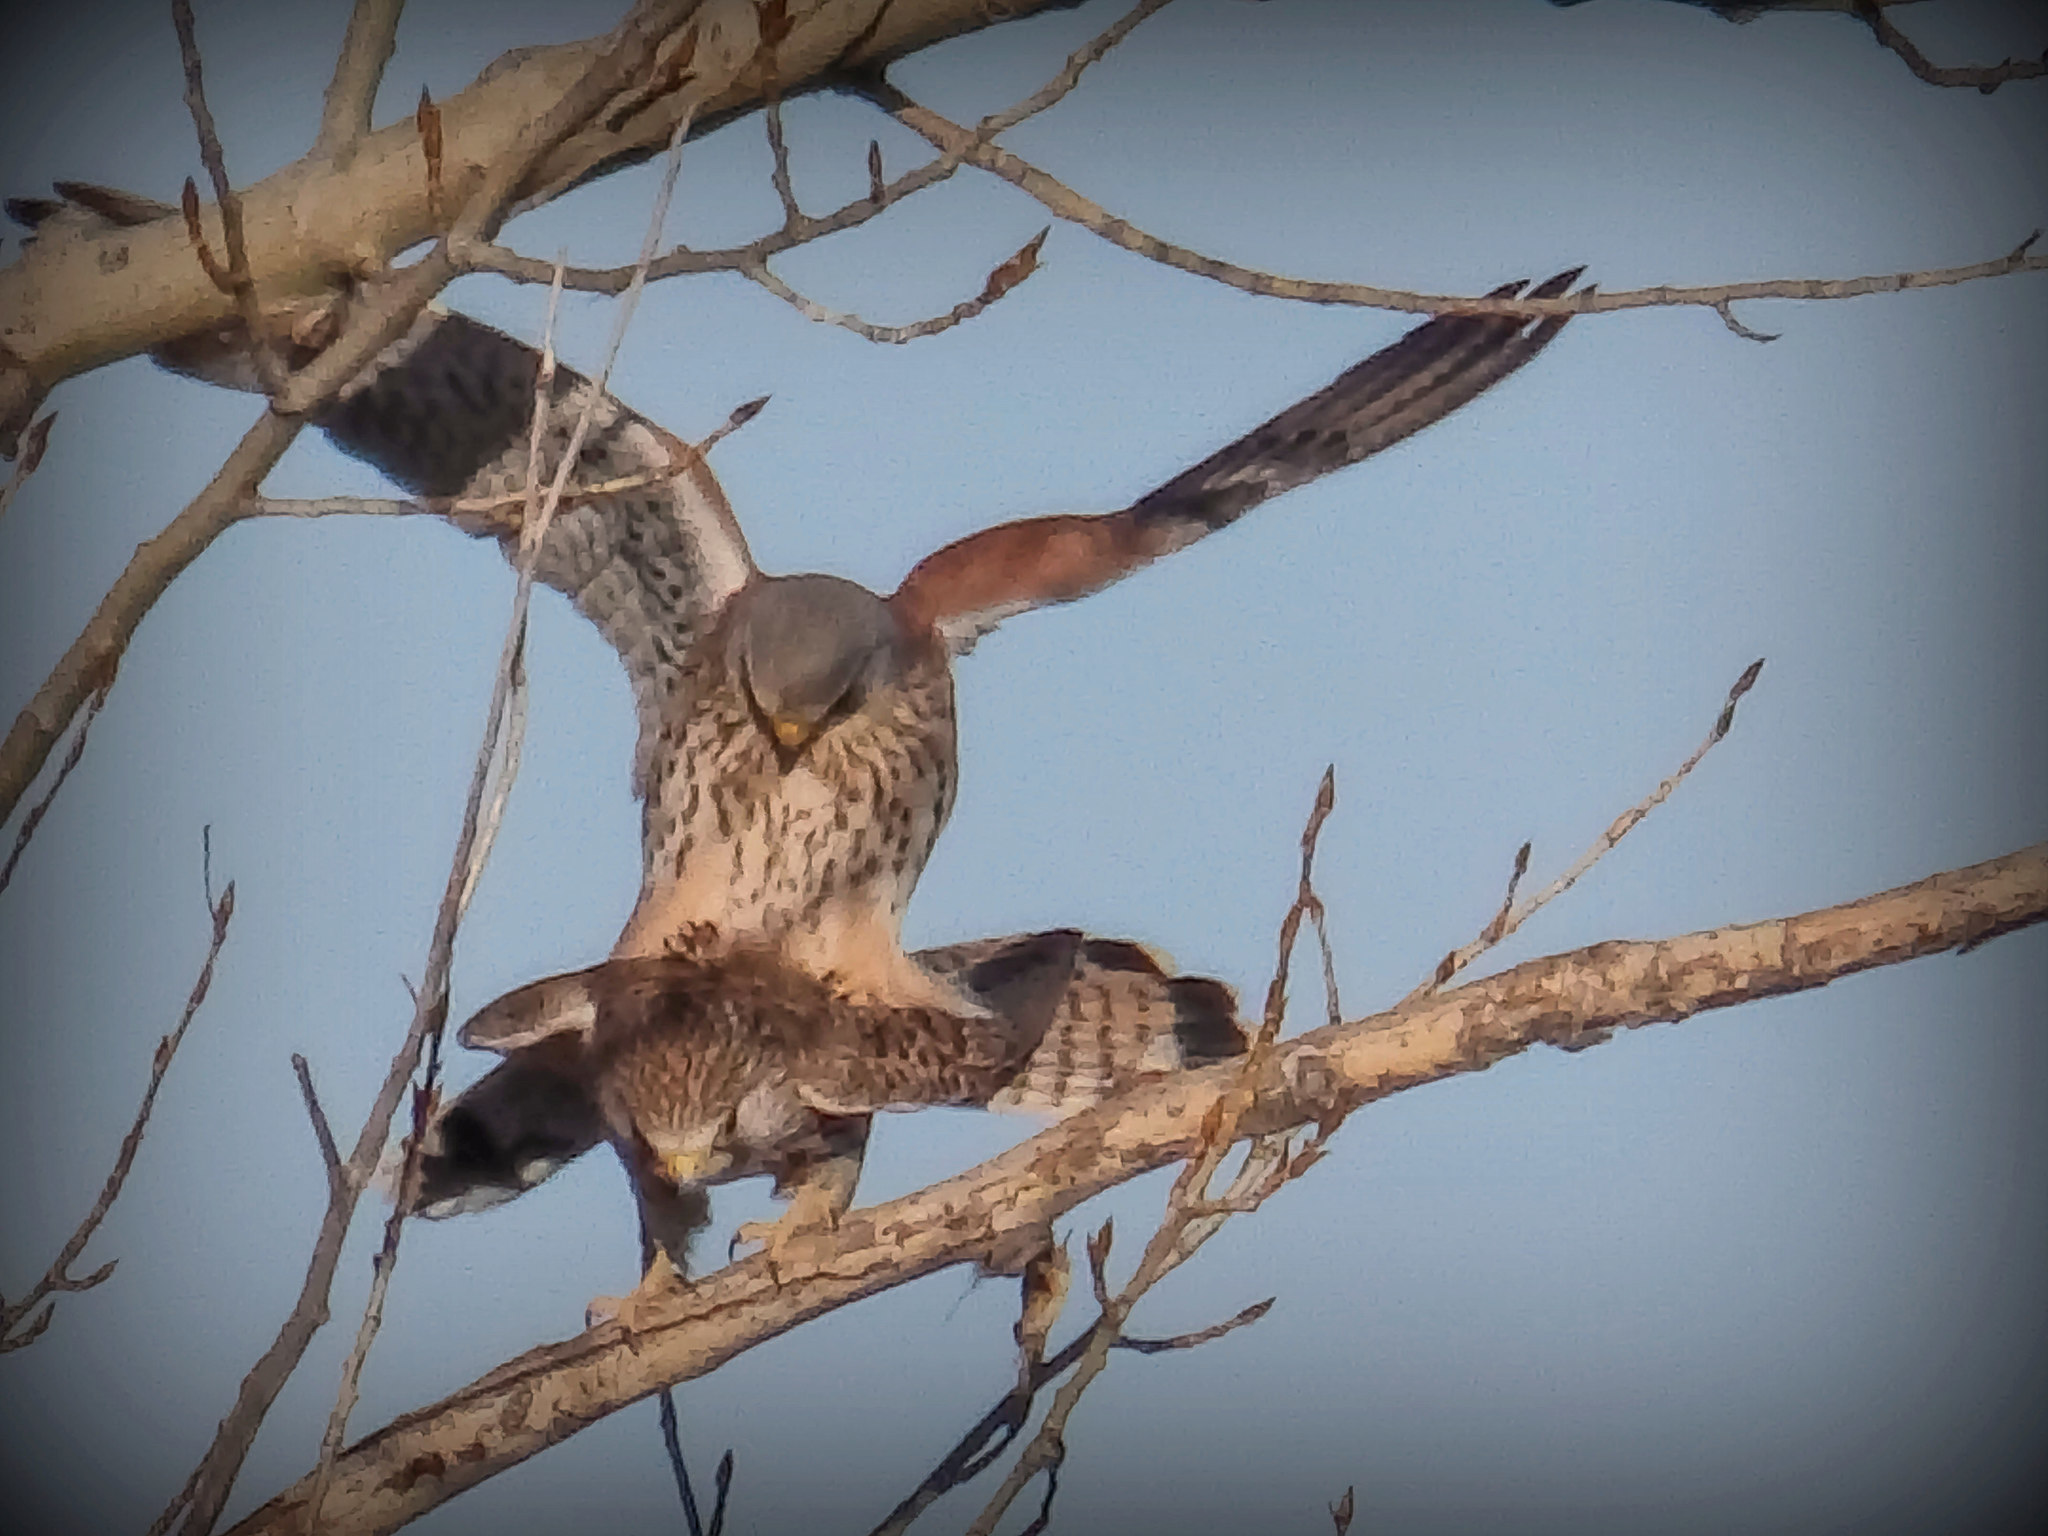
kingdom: Animalia
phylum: Chordata
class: Aves
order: Falconiformes
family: Falconidae
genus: Falco
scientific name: Falco tinnunculus
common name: Common kestrel
